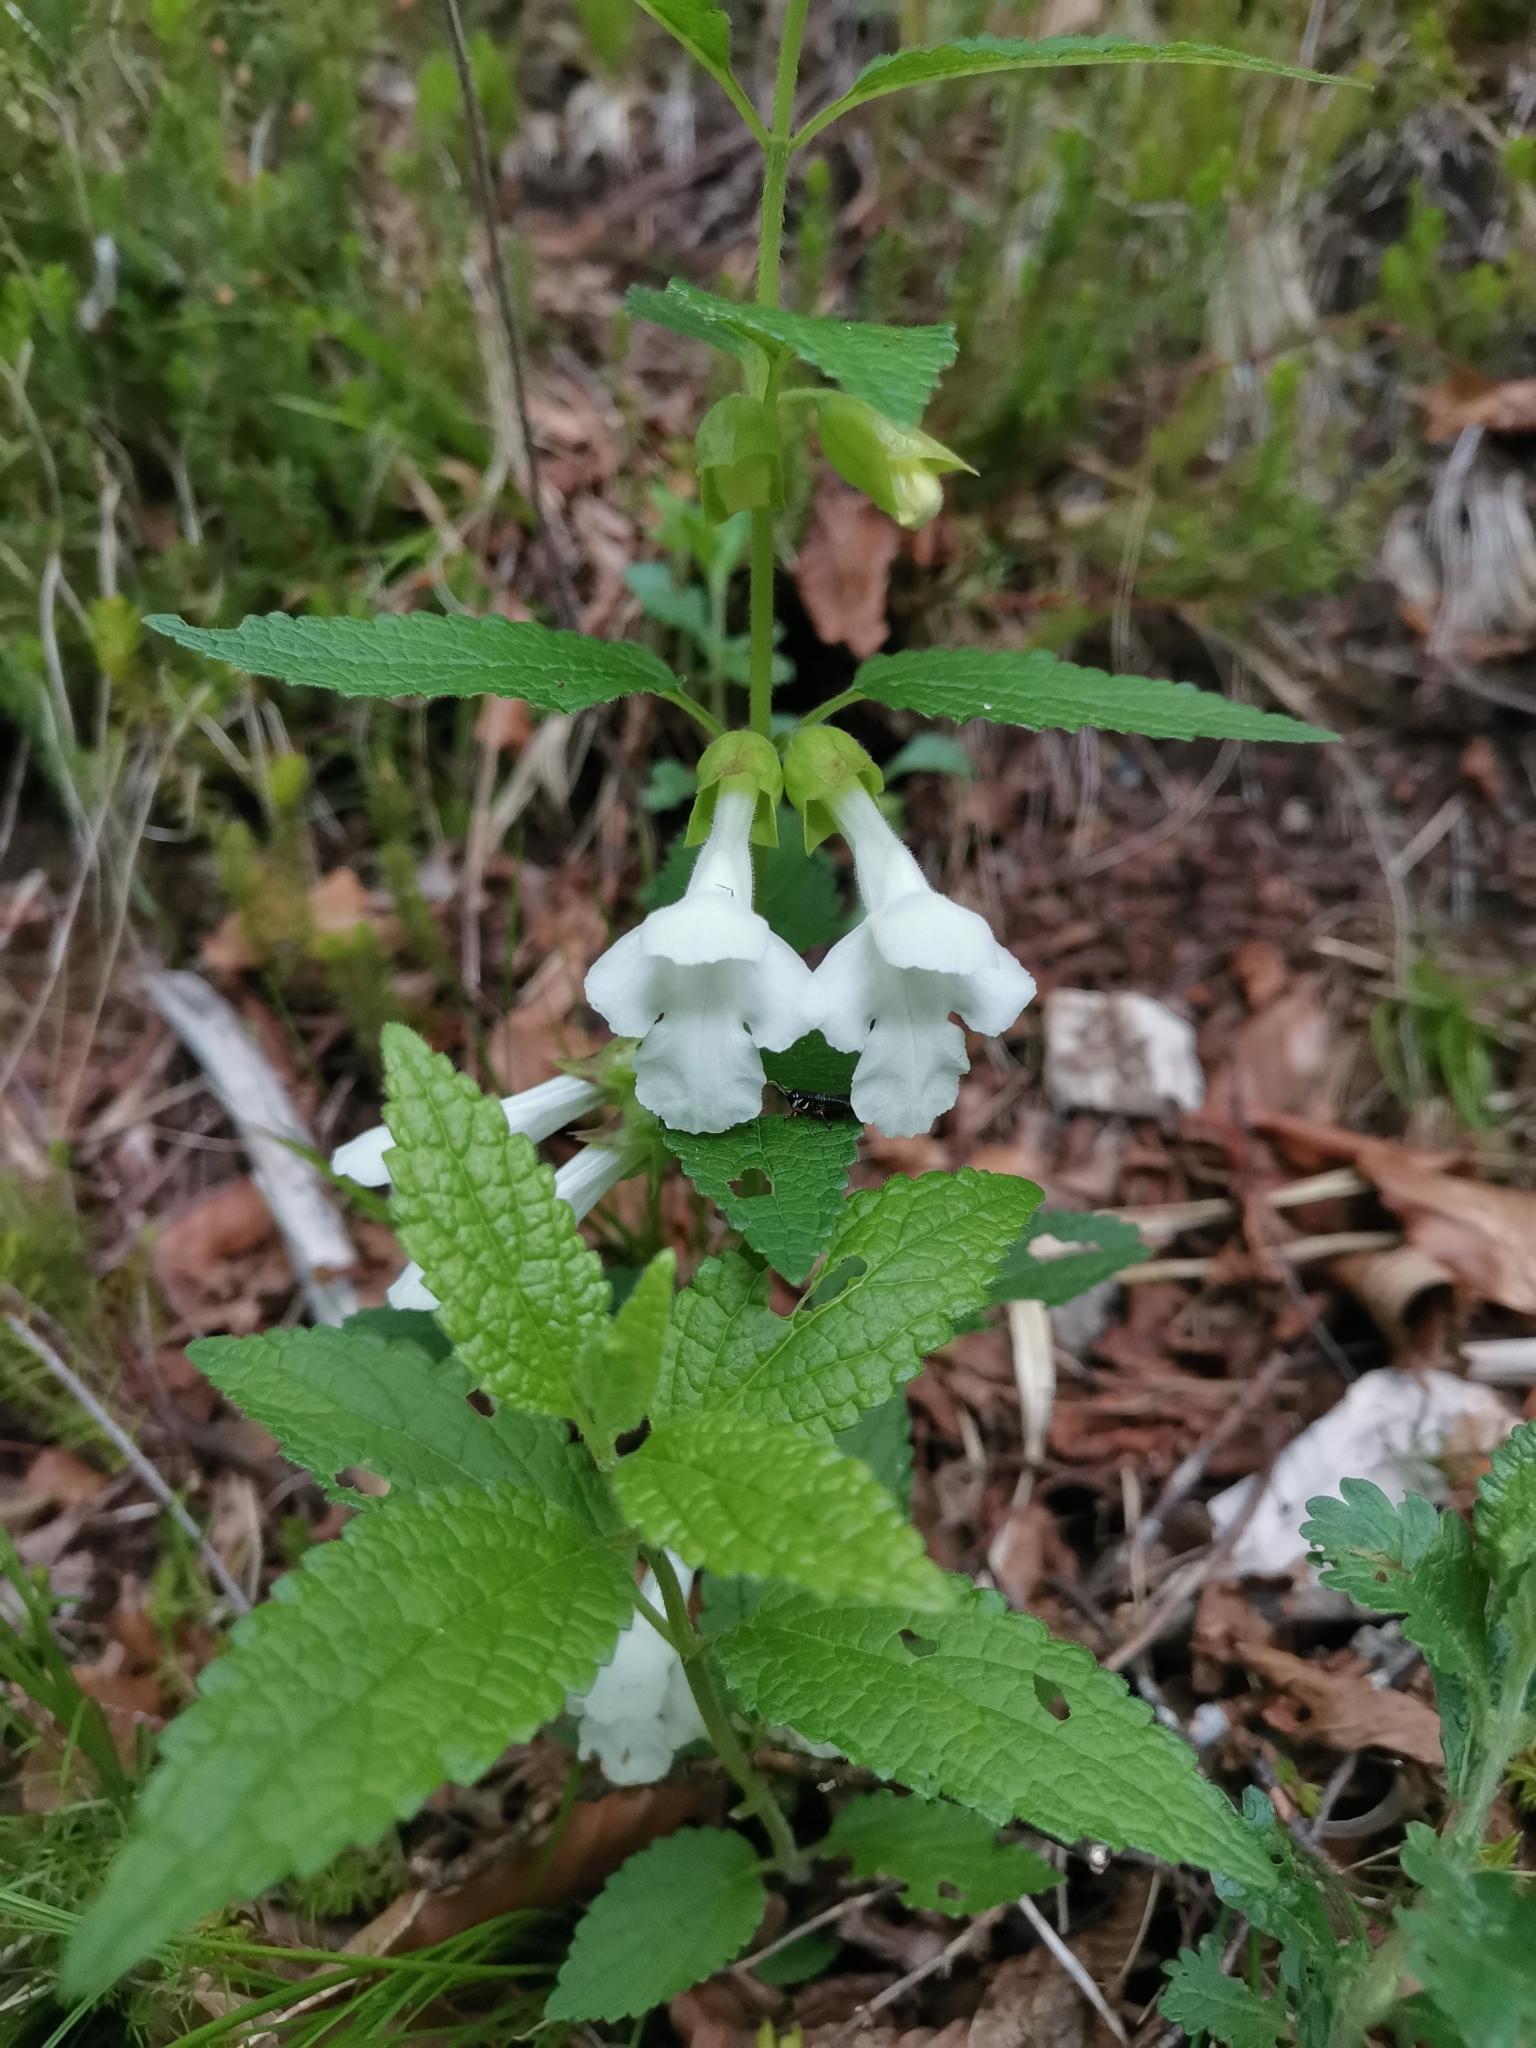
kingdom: Plantae
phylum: Tracheophyta
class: Magnoliopsida
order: Lamiales
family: Lamiaceae
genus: Melittis
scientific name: Melittis melissophyllum
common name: Bastard balm
